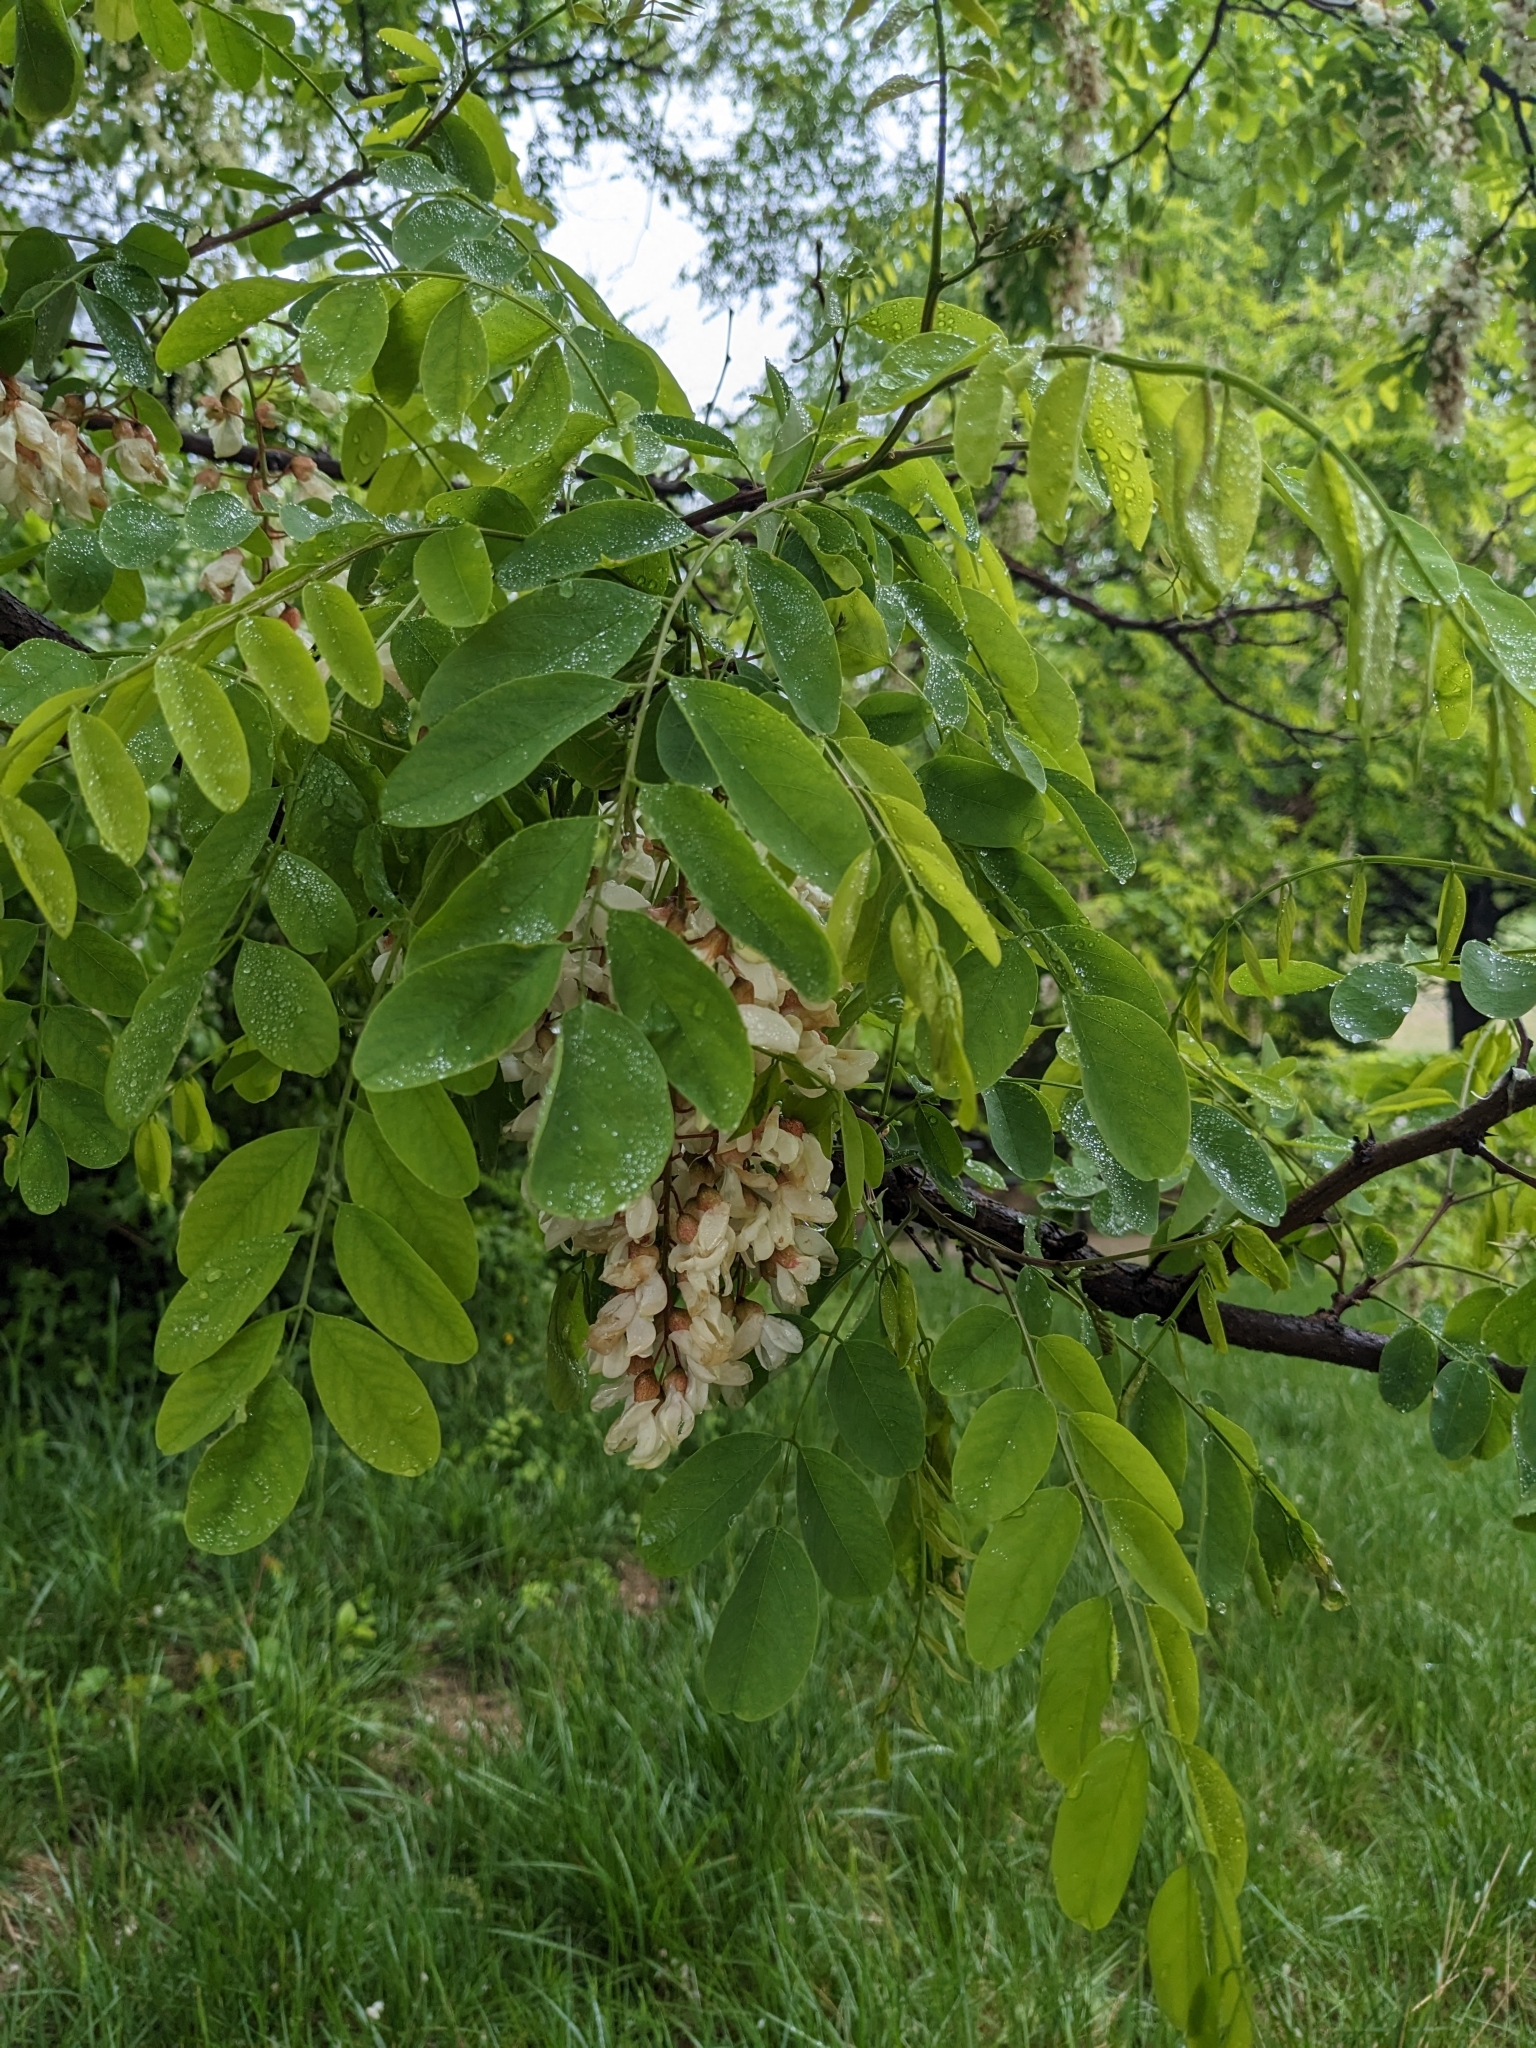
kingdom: Plantae
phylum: Tracheophyta
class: Magnoliopsida
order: Fabales
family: Fabaceae
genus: Robinia
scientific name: Robinia pseudoacacia
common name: Black locust
